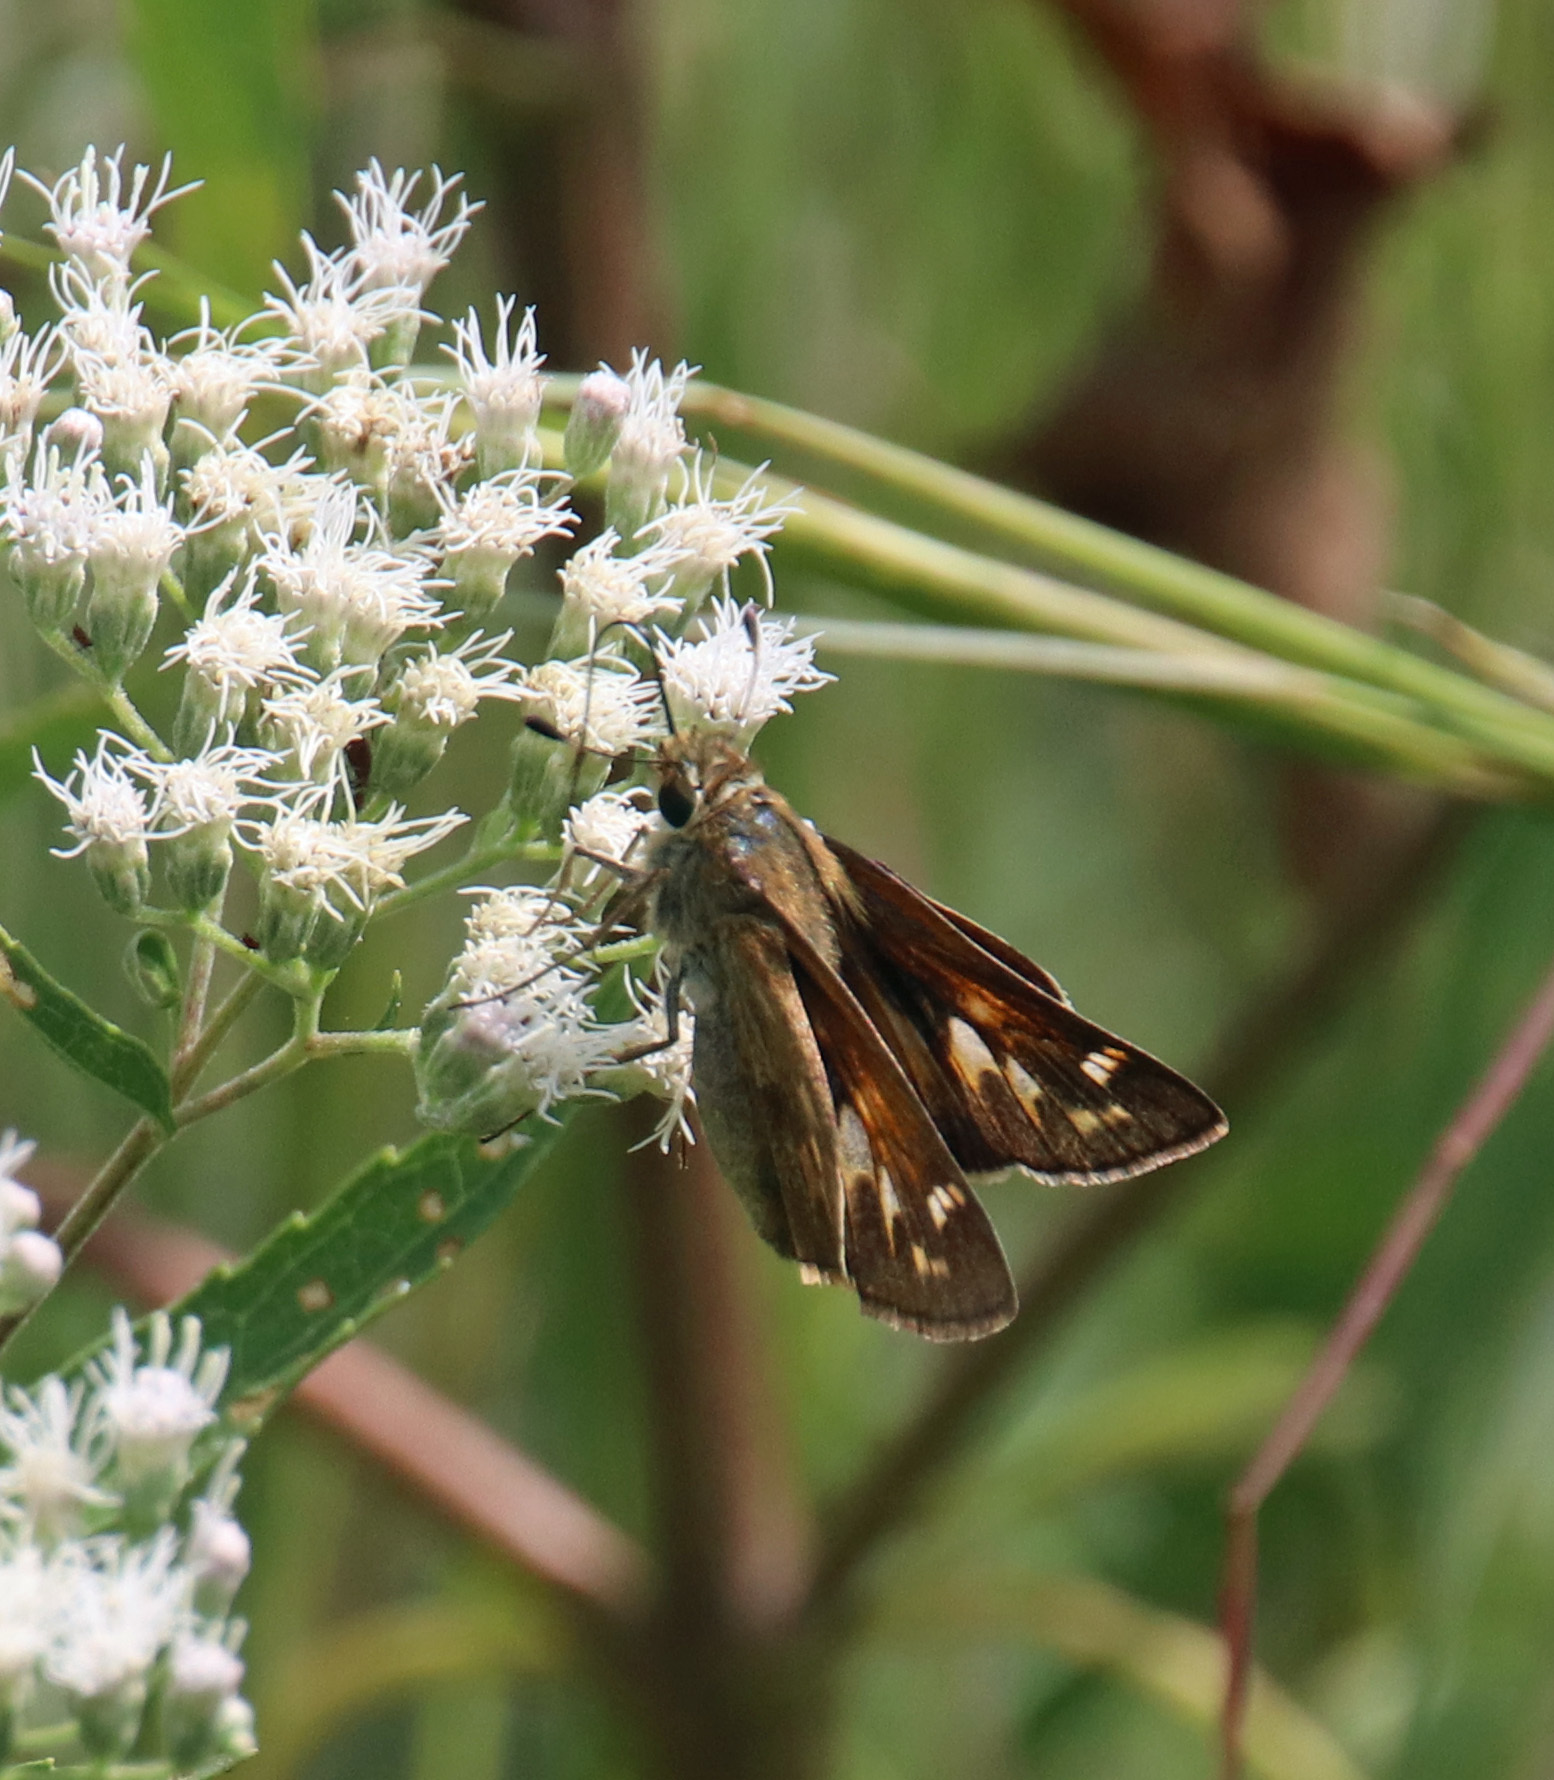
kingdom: Animalia
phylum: Arthropoda
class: Insecta
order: Lepidoptera
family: Hesperiidae
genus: Atalopedes
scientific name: Atalopedes
